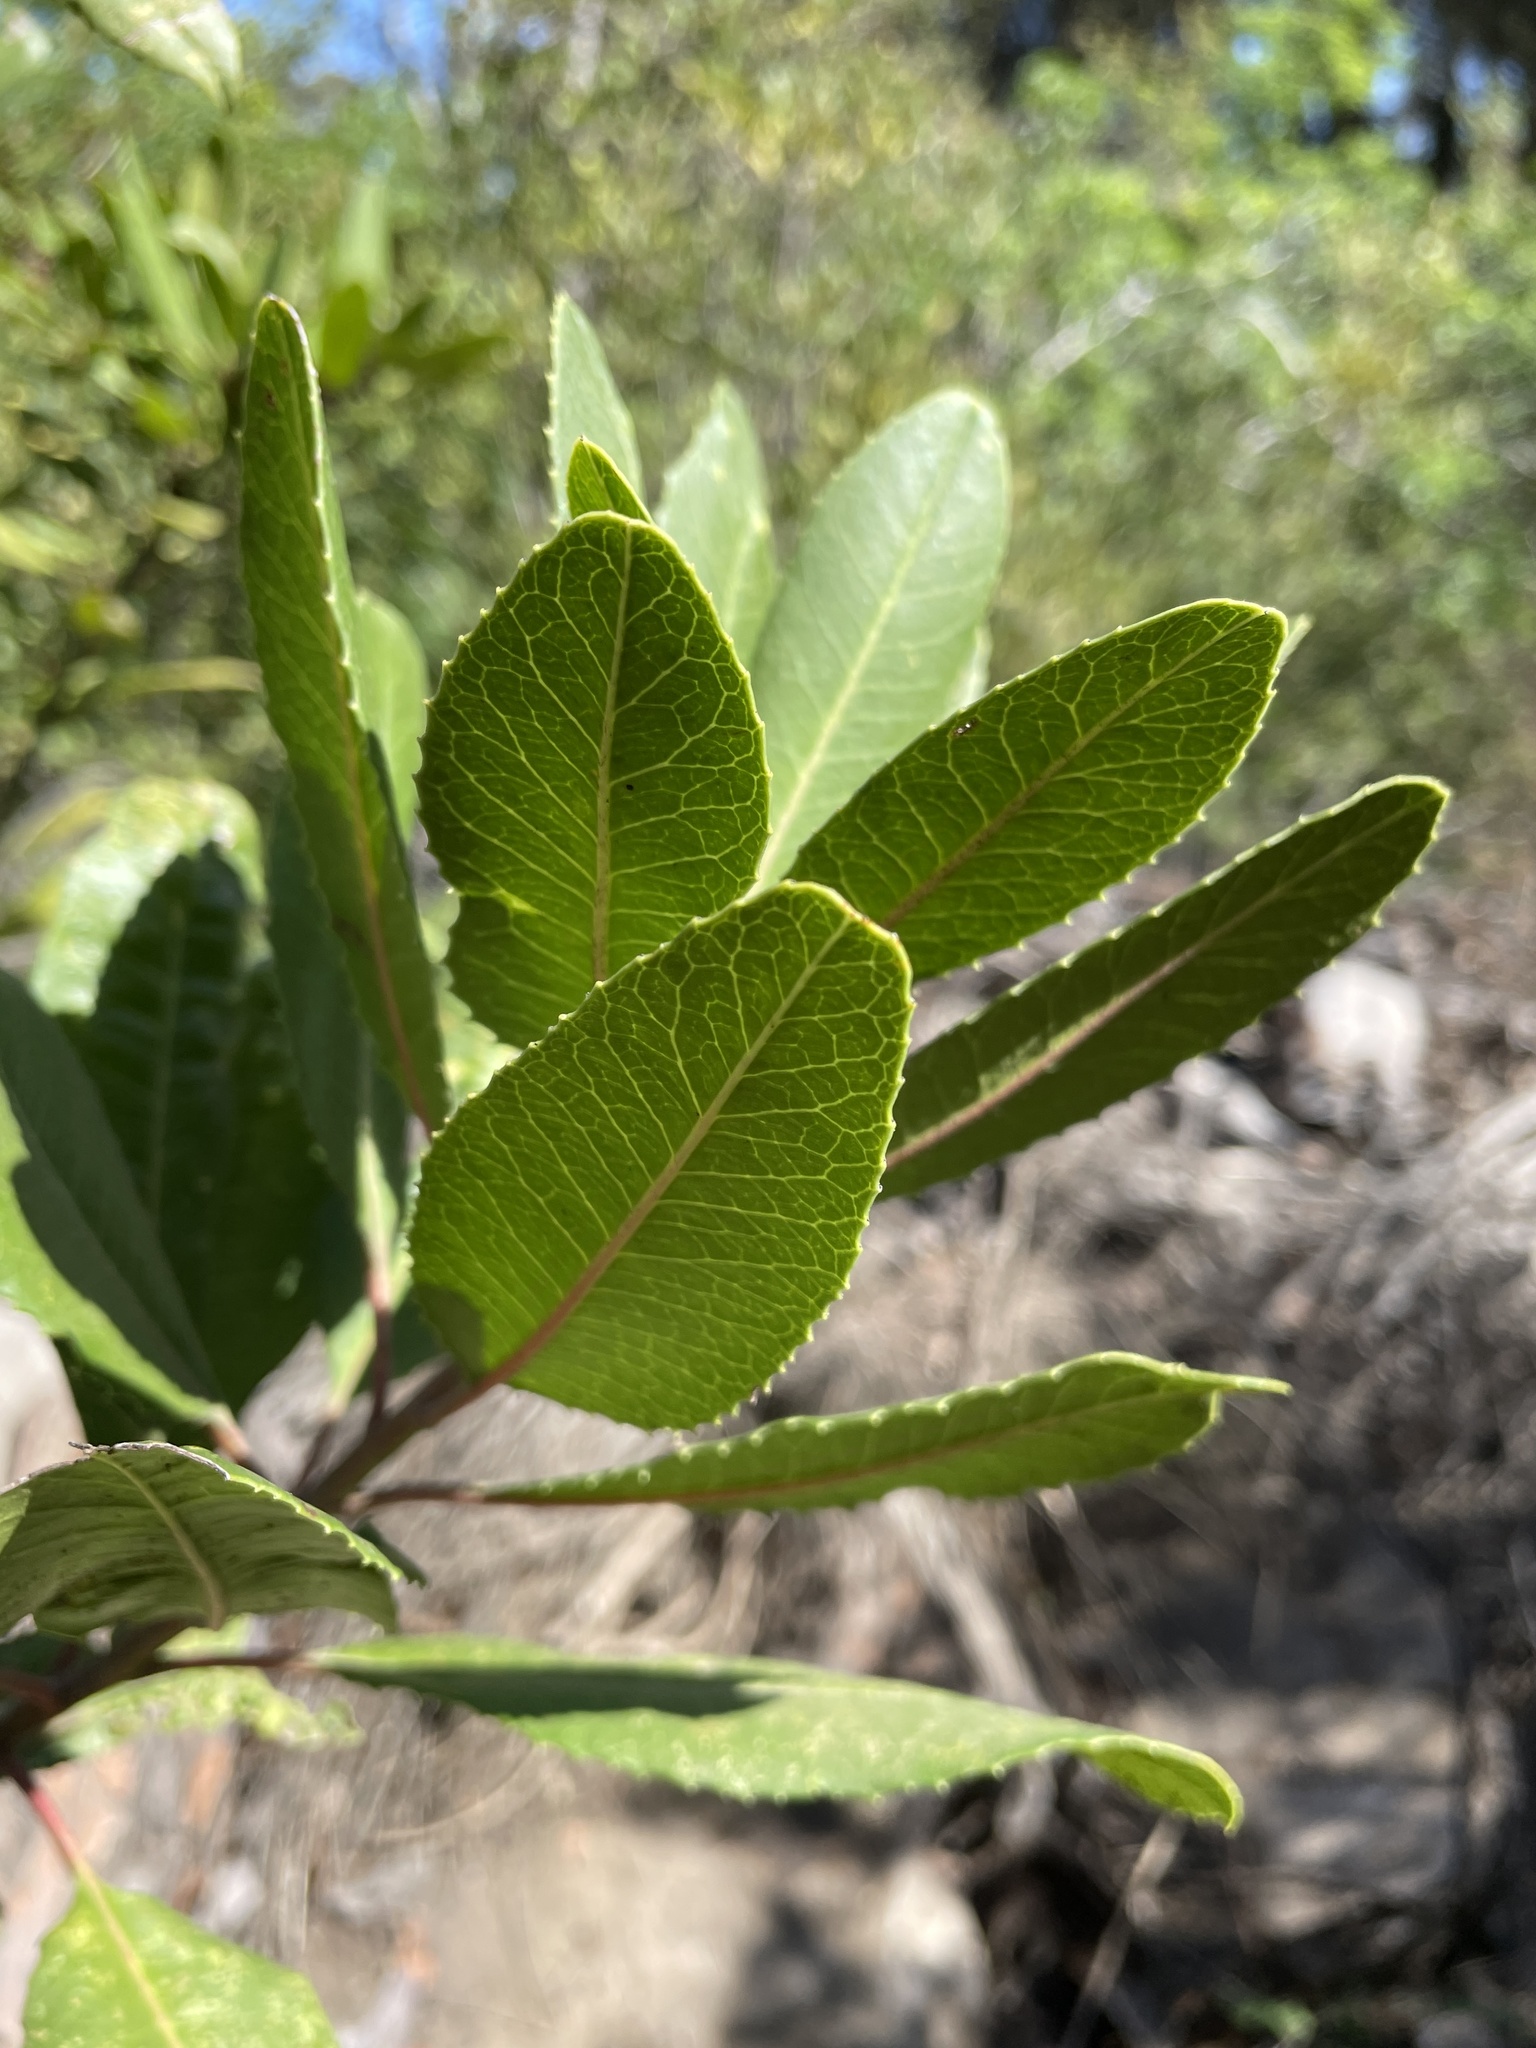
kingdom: Plantae
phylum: Tracheophyta
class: Magnoliopsida
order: Rosales
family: Rosaceae
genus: Heteromeles
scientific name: Heteromeles arbutifolia
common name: California-holly
